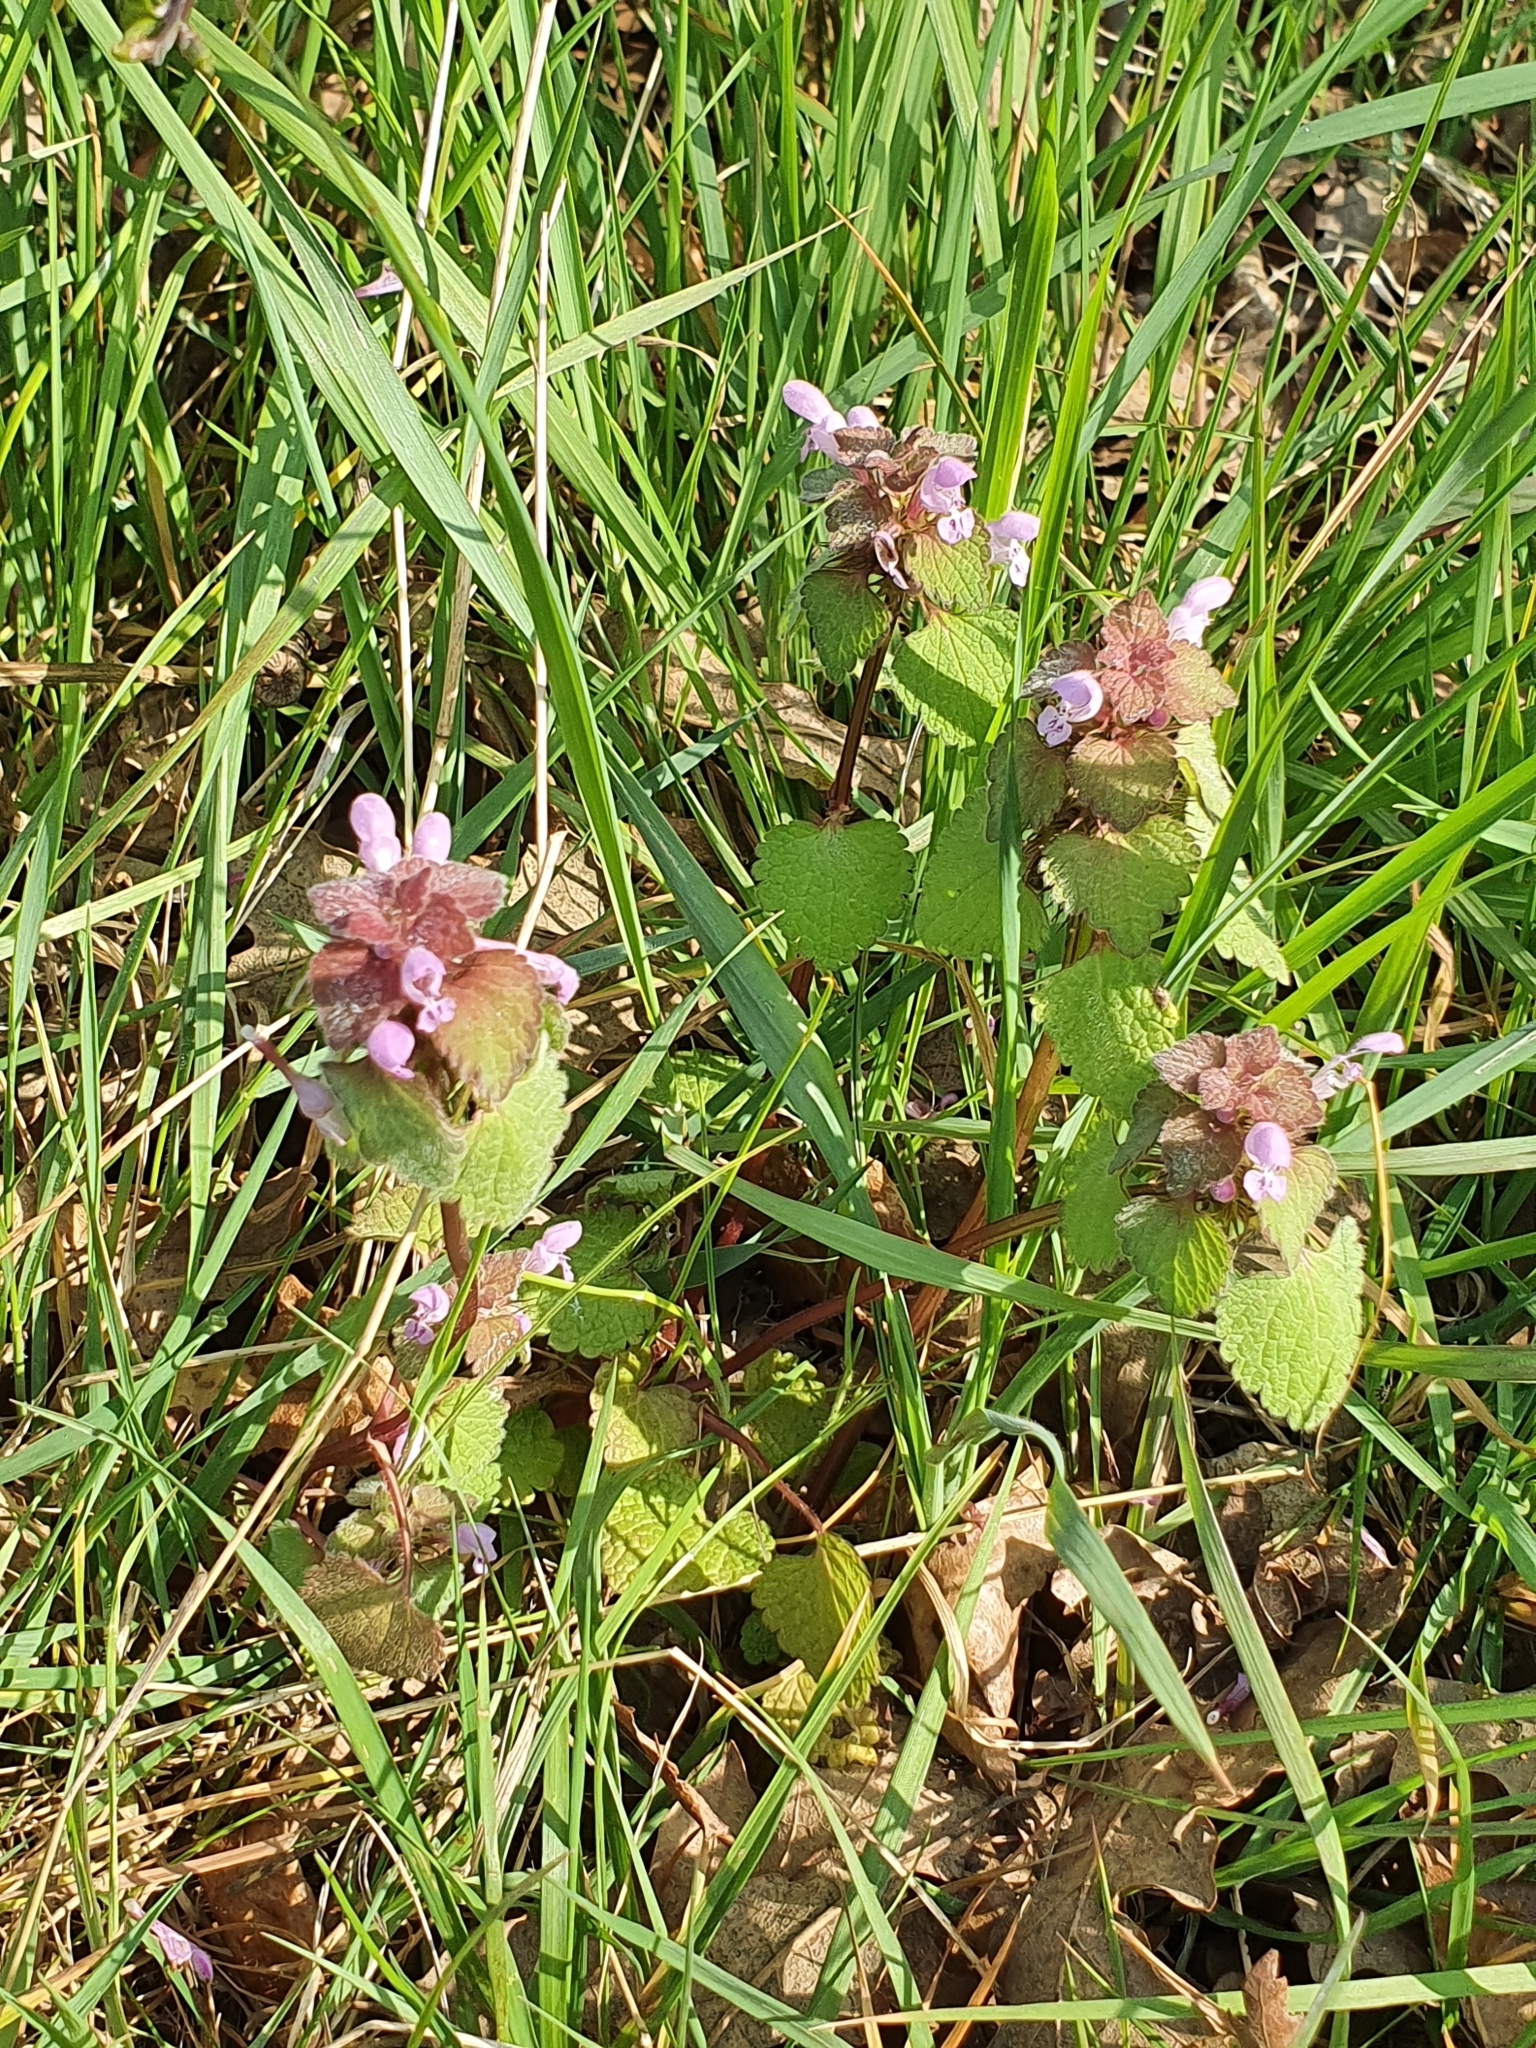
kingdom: Plantae
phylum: Tracheophyta
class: Magnoliopsida
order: Lamiales
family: Lamiaceae
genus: Lamium
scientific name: Lamium purpureum
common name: Red dead-nettle
